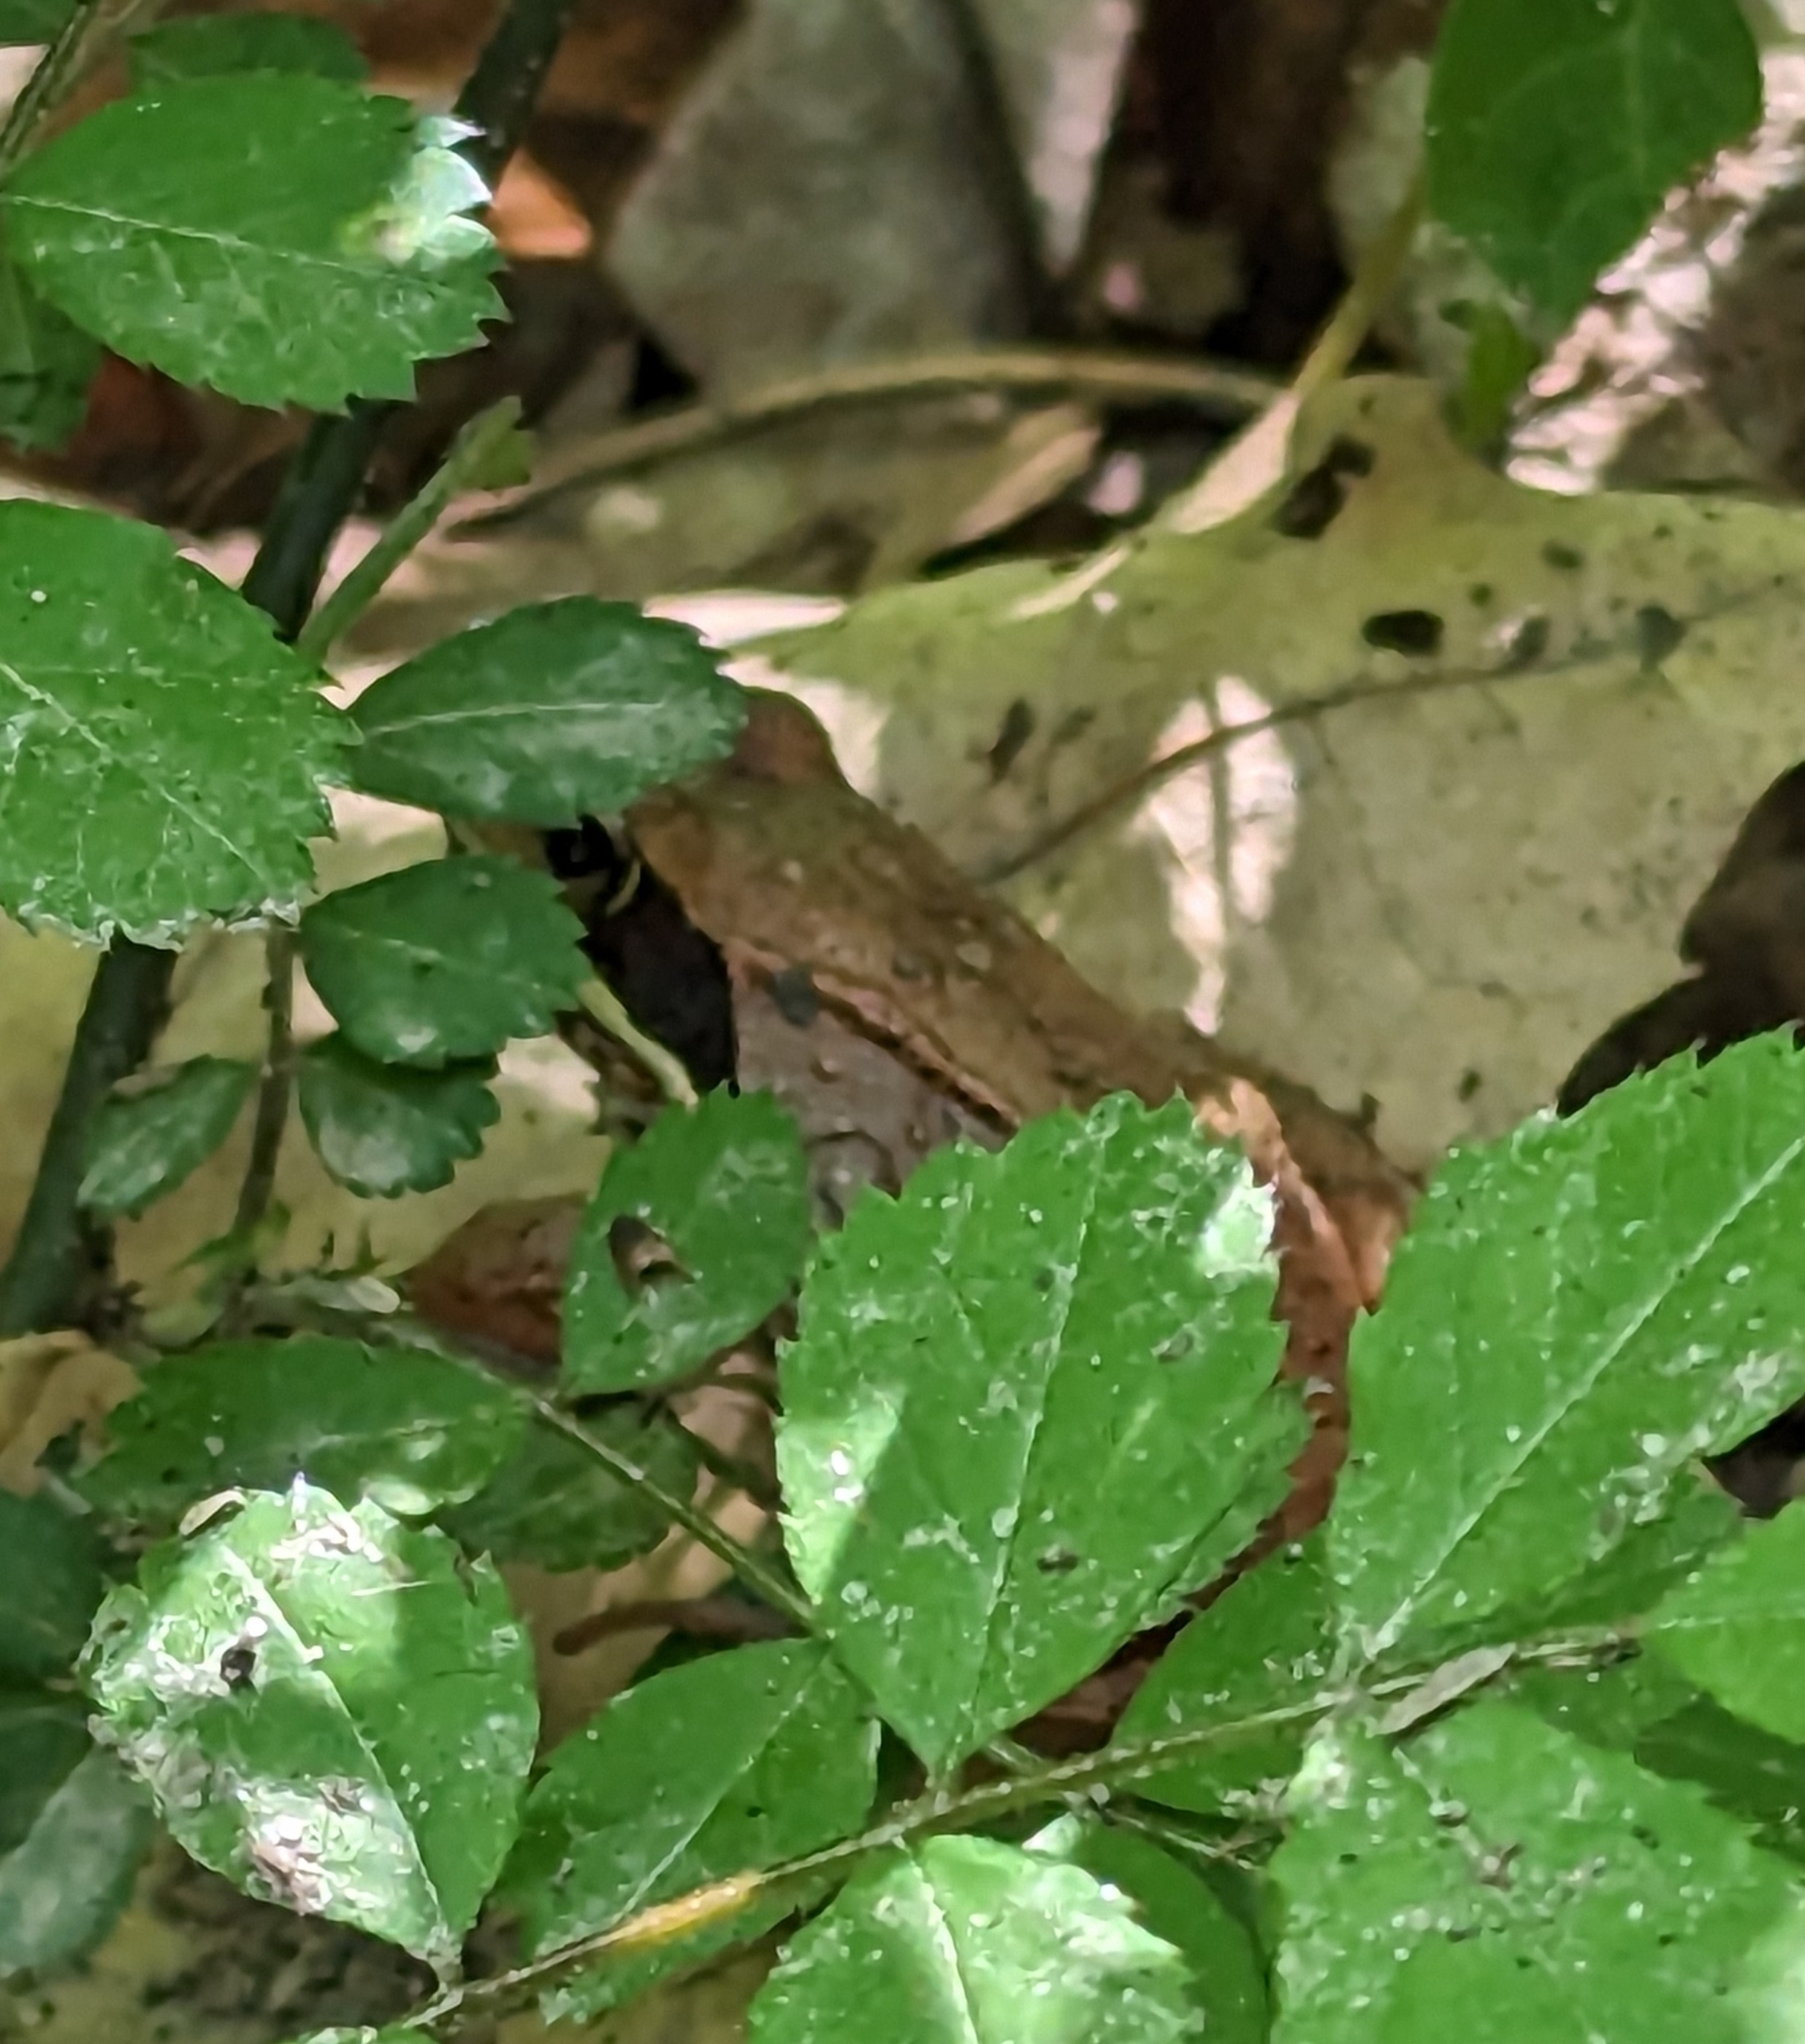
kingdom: Animalia
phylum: Chordata
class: Amphibia
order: Anura
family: Ranidae
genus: Lithobates
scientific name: Lithobates sylvaticus
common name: Wood frog
